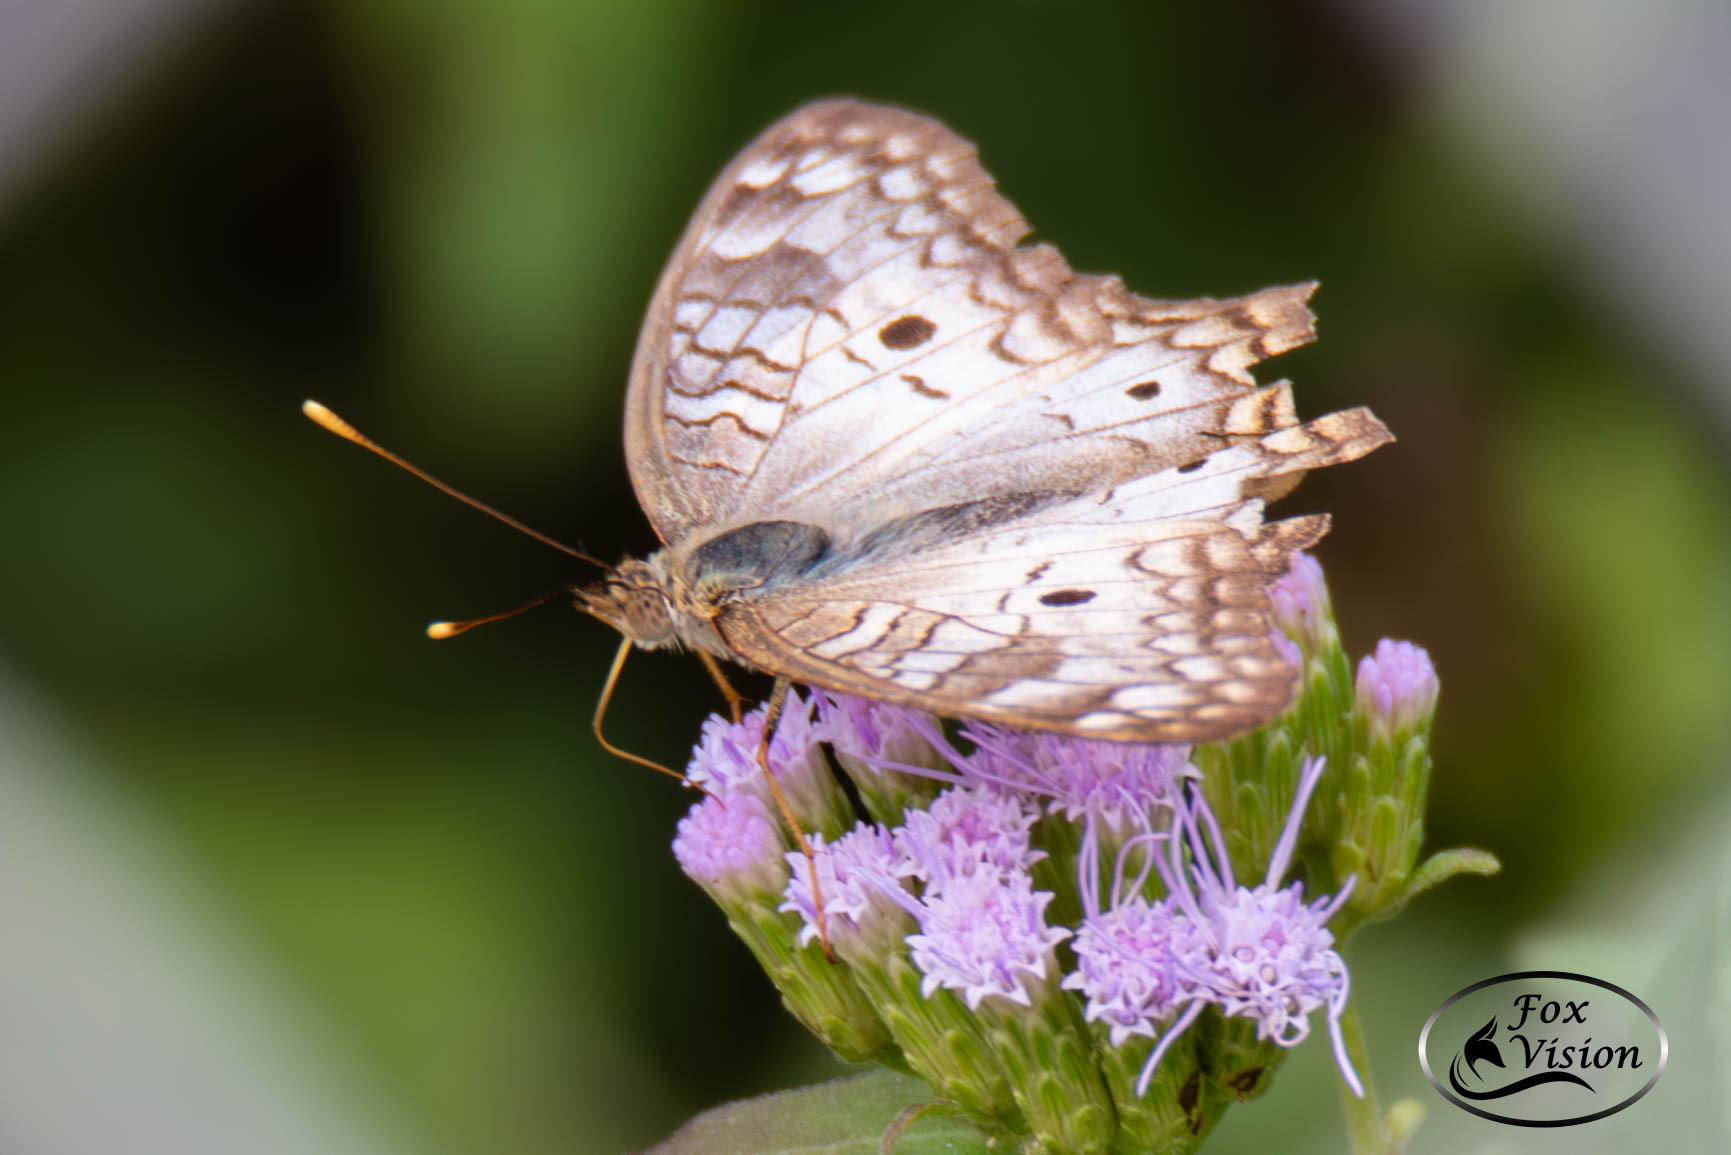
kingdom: Animalia
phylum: Arthropoda
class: Insecta
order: Lepidoptera
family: Nymphalidae
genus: Anartia
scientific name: Anartia jatrophae
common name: White peacock
